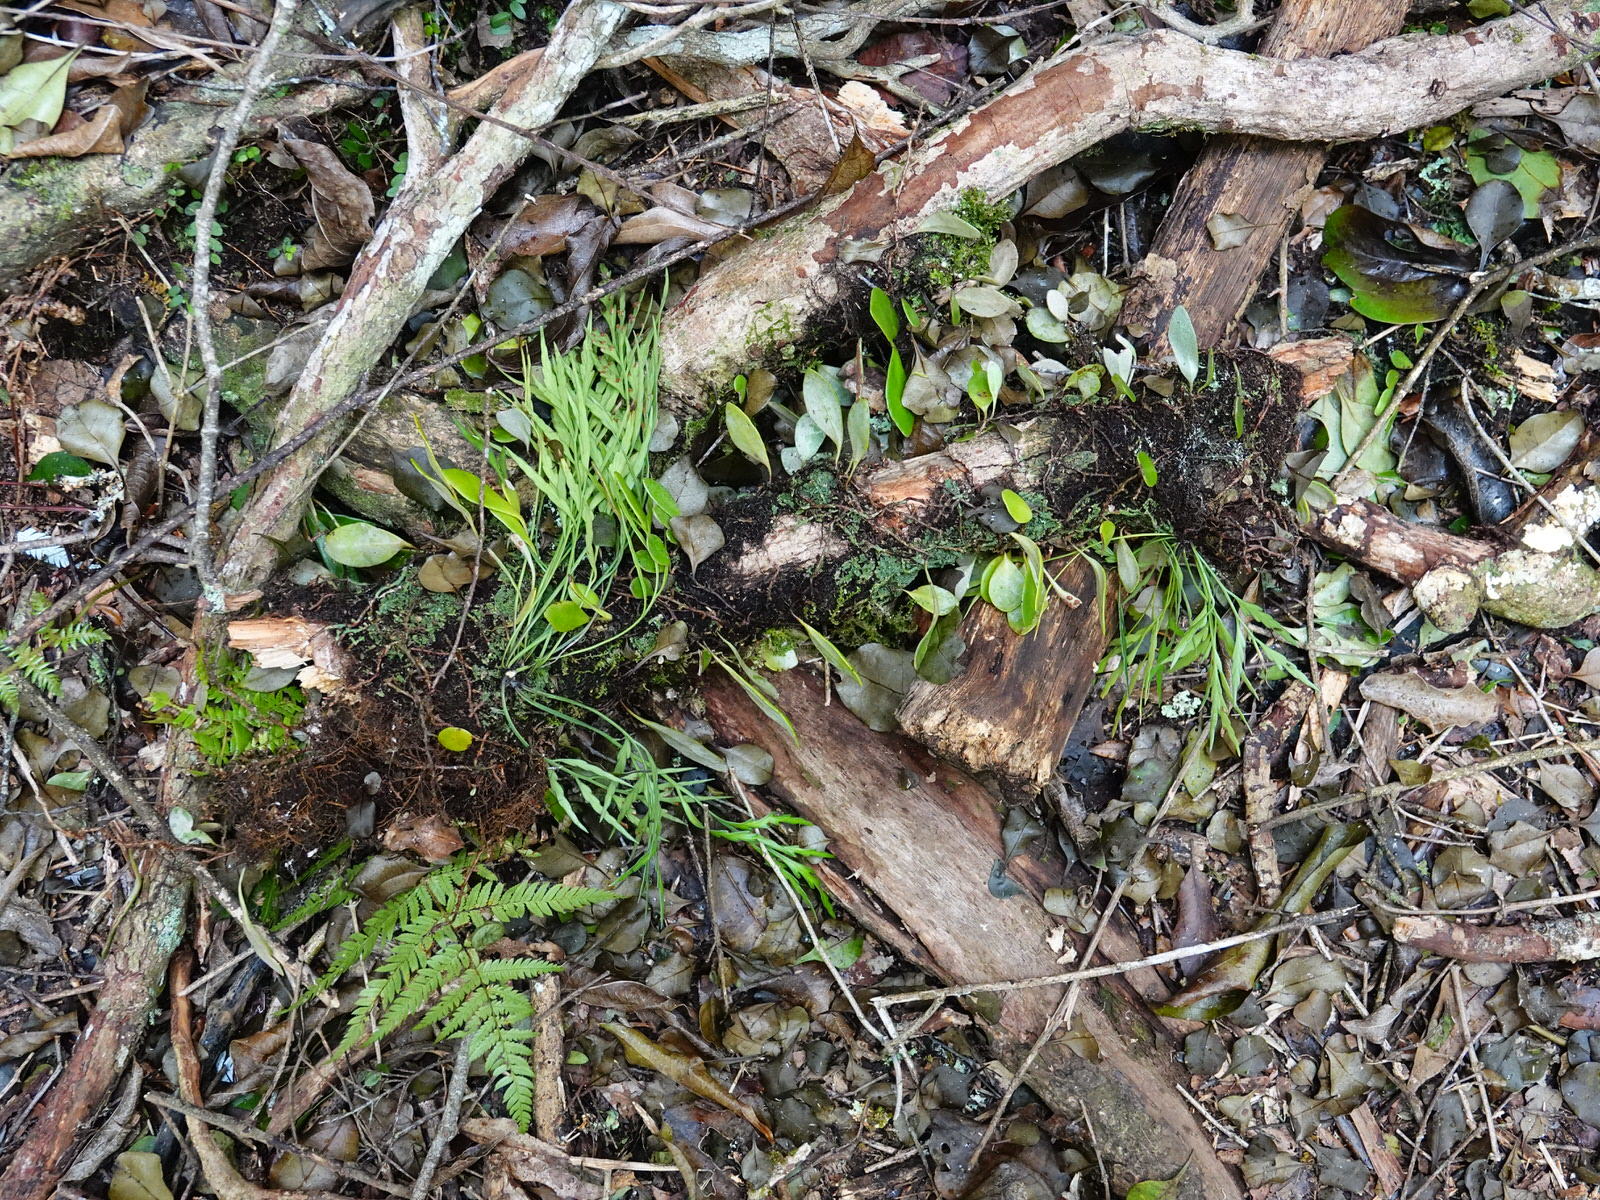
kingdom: Plantae
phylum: Tracheophyta
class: Polypodiopsida
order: Polypodiales
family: Polypodiaceae
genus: Pyrrosia
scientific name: Pyrrosia eleagnifolia
